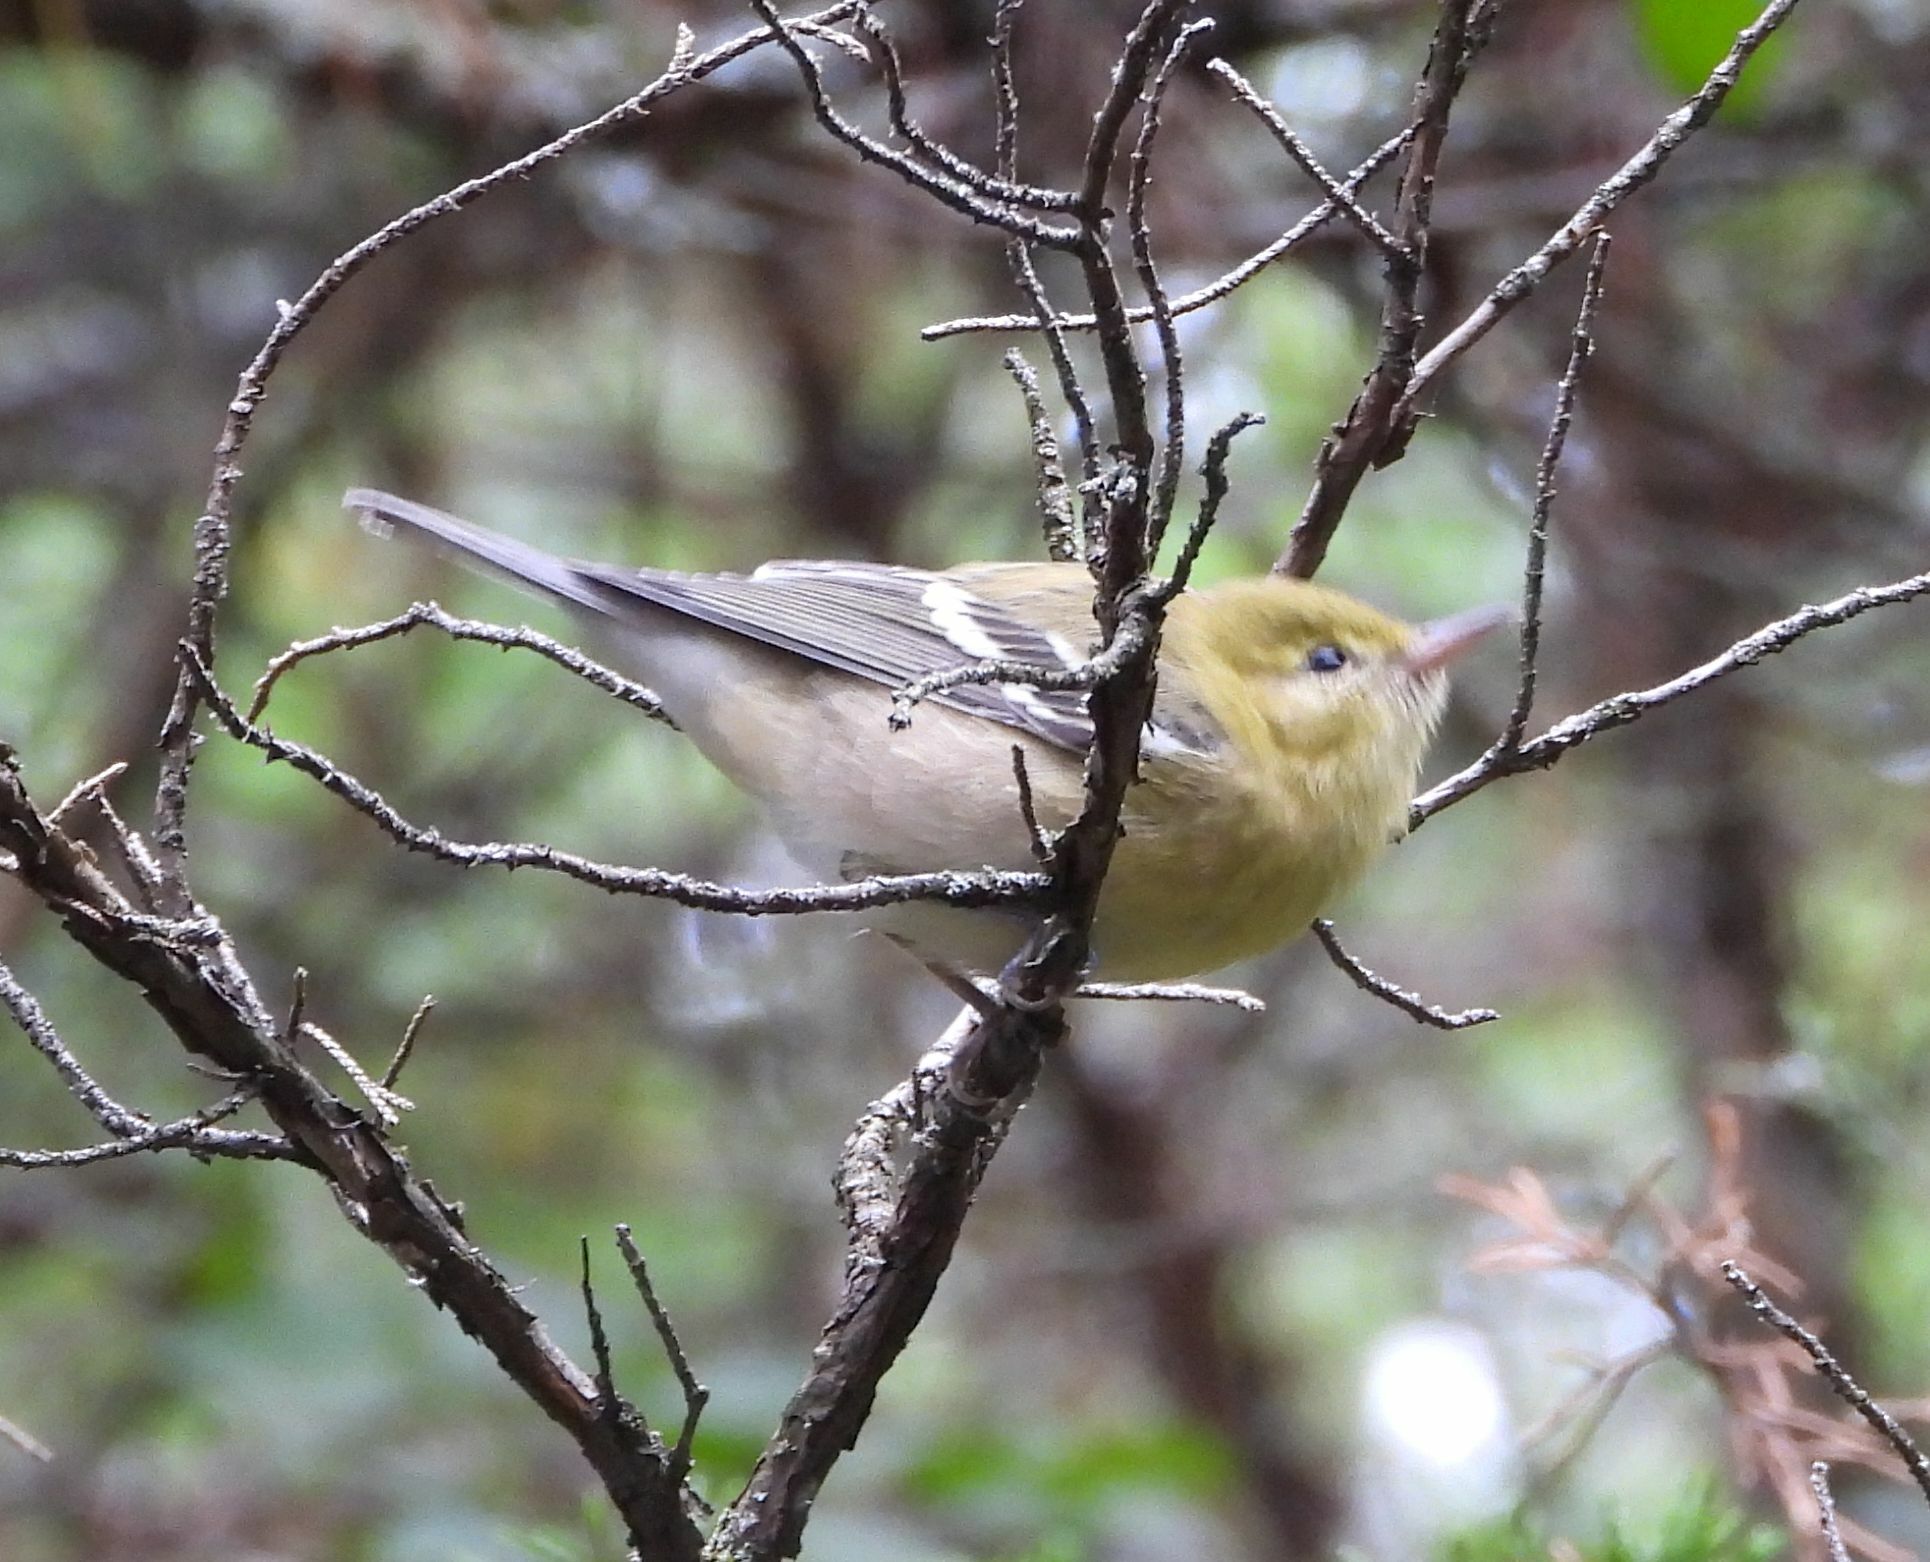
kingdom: Animalia
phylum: Chordata
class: Aves
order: Passeriformes
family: Parulidae
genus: Setophaga
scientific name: Setophaga castanea
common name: Bay-breasted warbler
